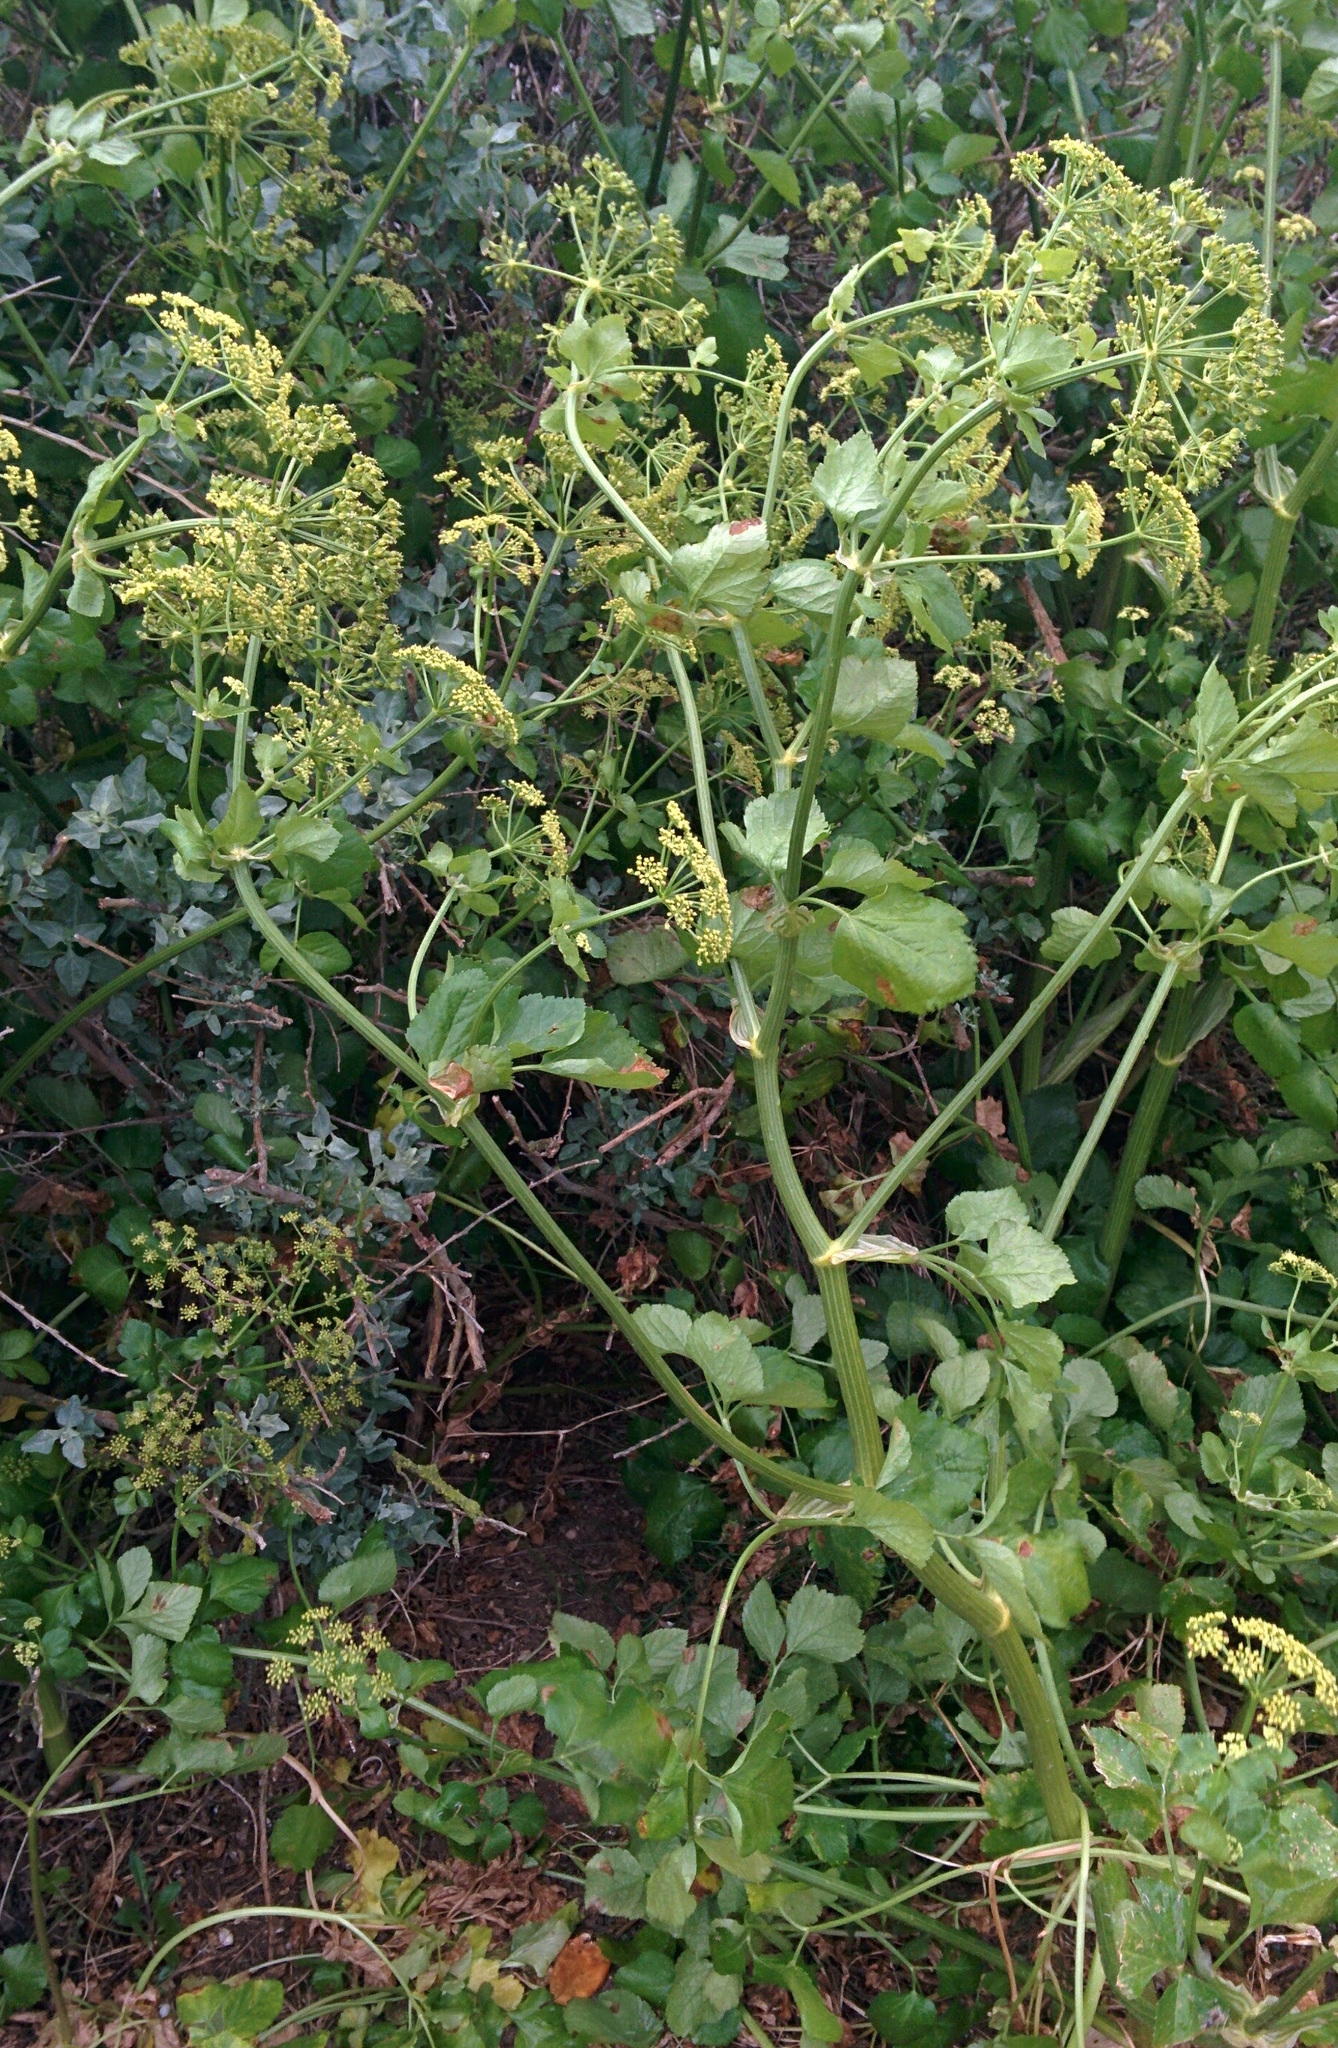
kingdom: Plantae
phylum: Tracheophyta
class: Magnoliopsida
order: Apiales
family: Apiaceae
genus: Smyrnium
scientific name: Smyrnium olusatrum
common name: Alexanders
